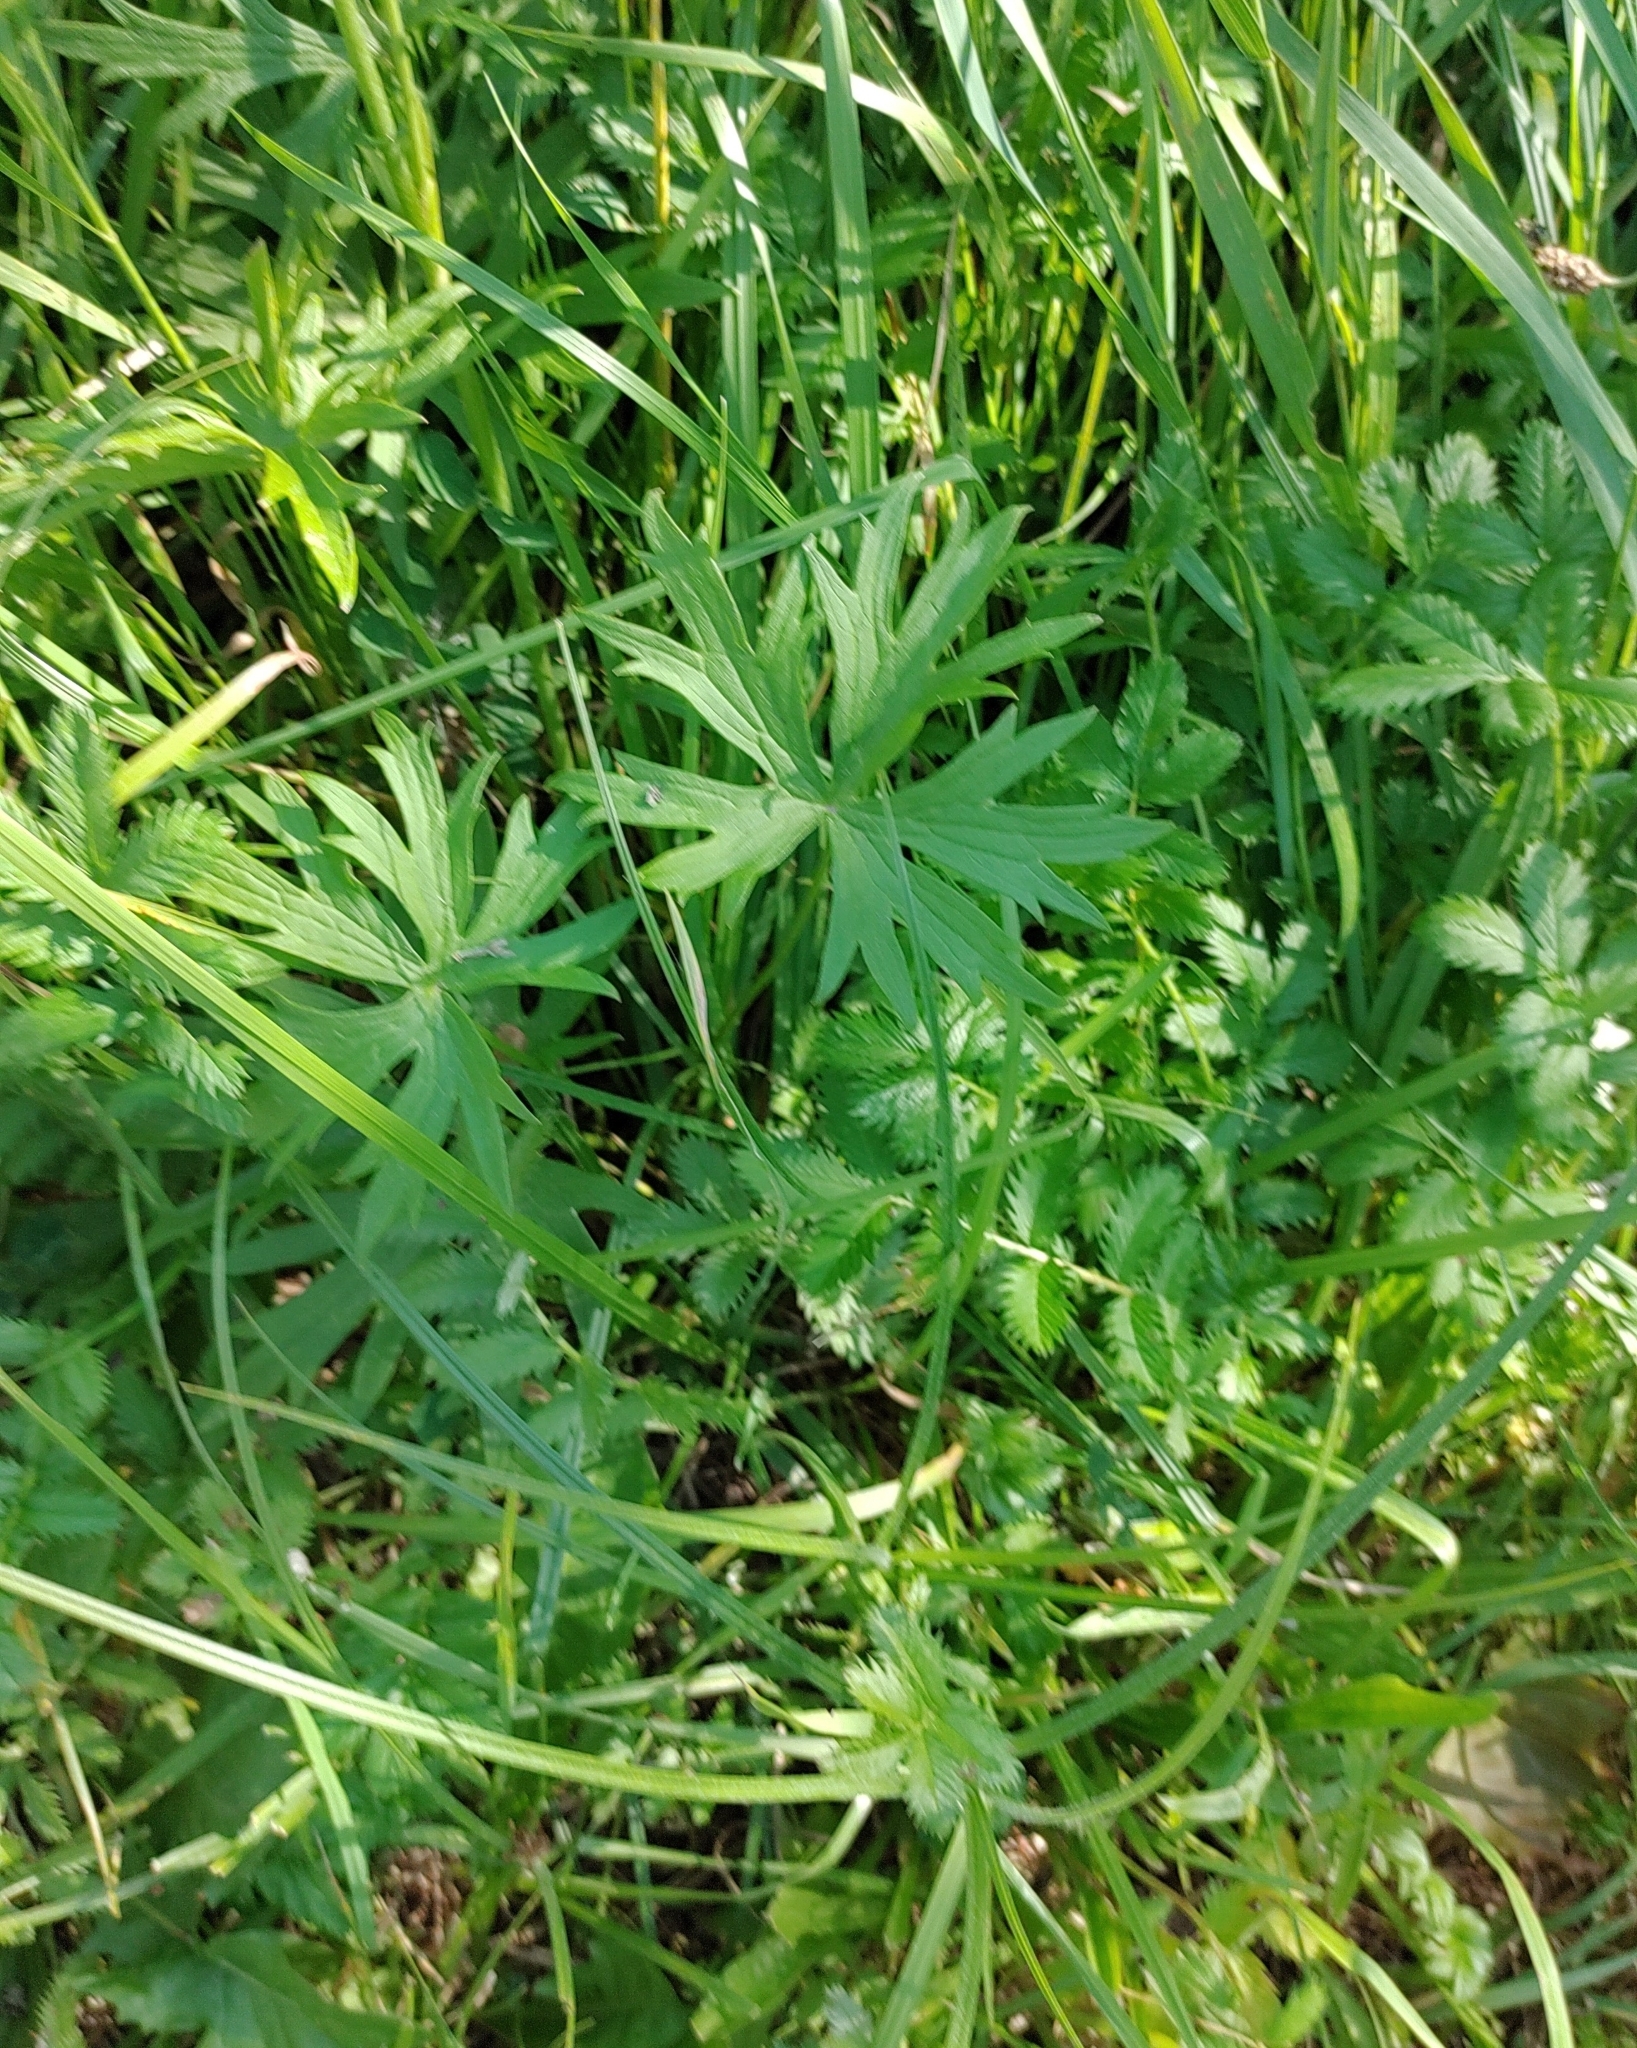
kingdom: Plantae
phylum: Tracheophyta
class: Magnoliopsida
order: Ranunculales
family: Ranunculaceae
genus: Ranunculus
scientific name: Ranunculus acris
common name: Meadow buttercup
